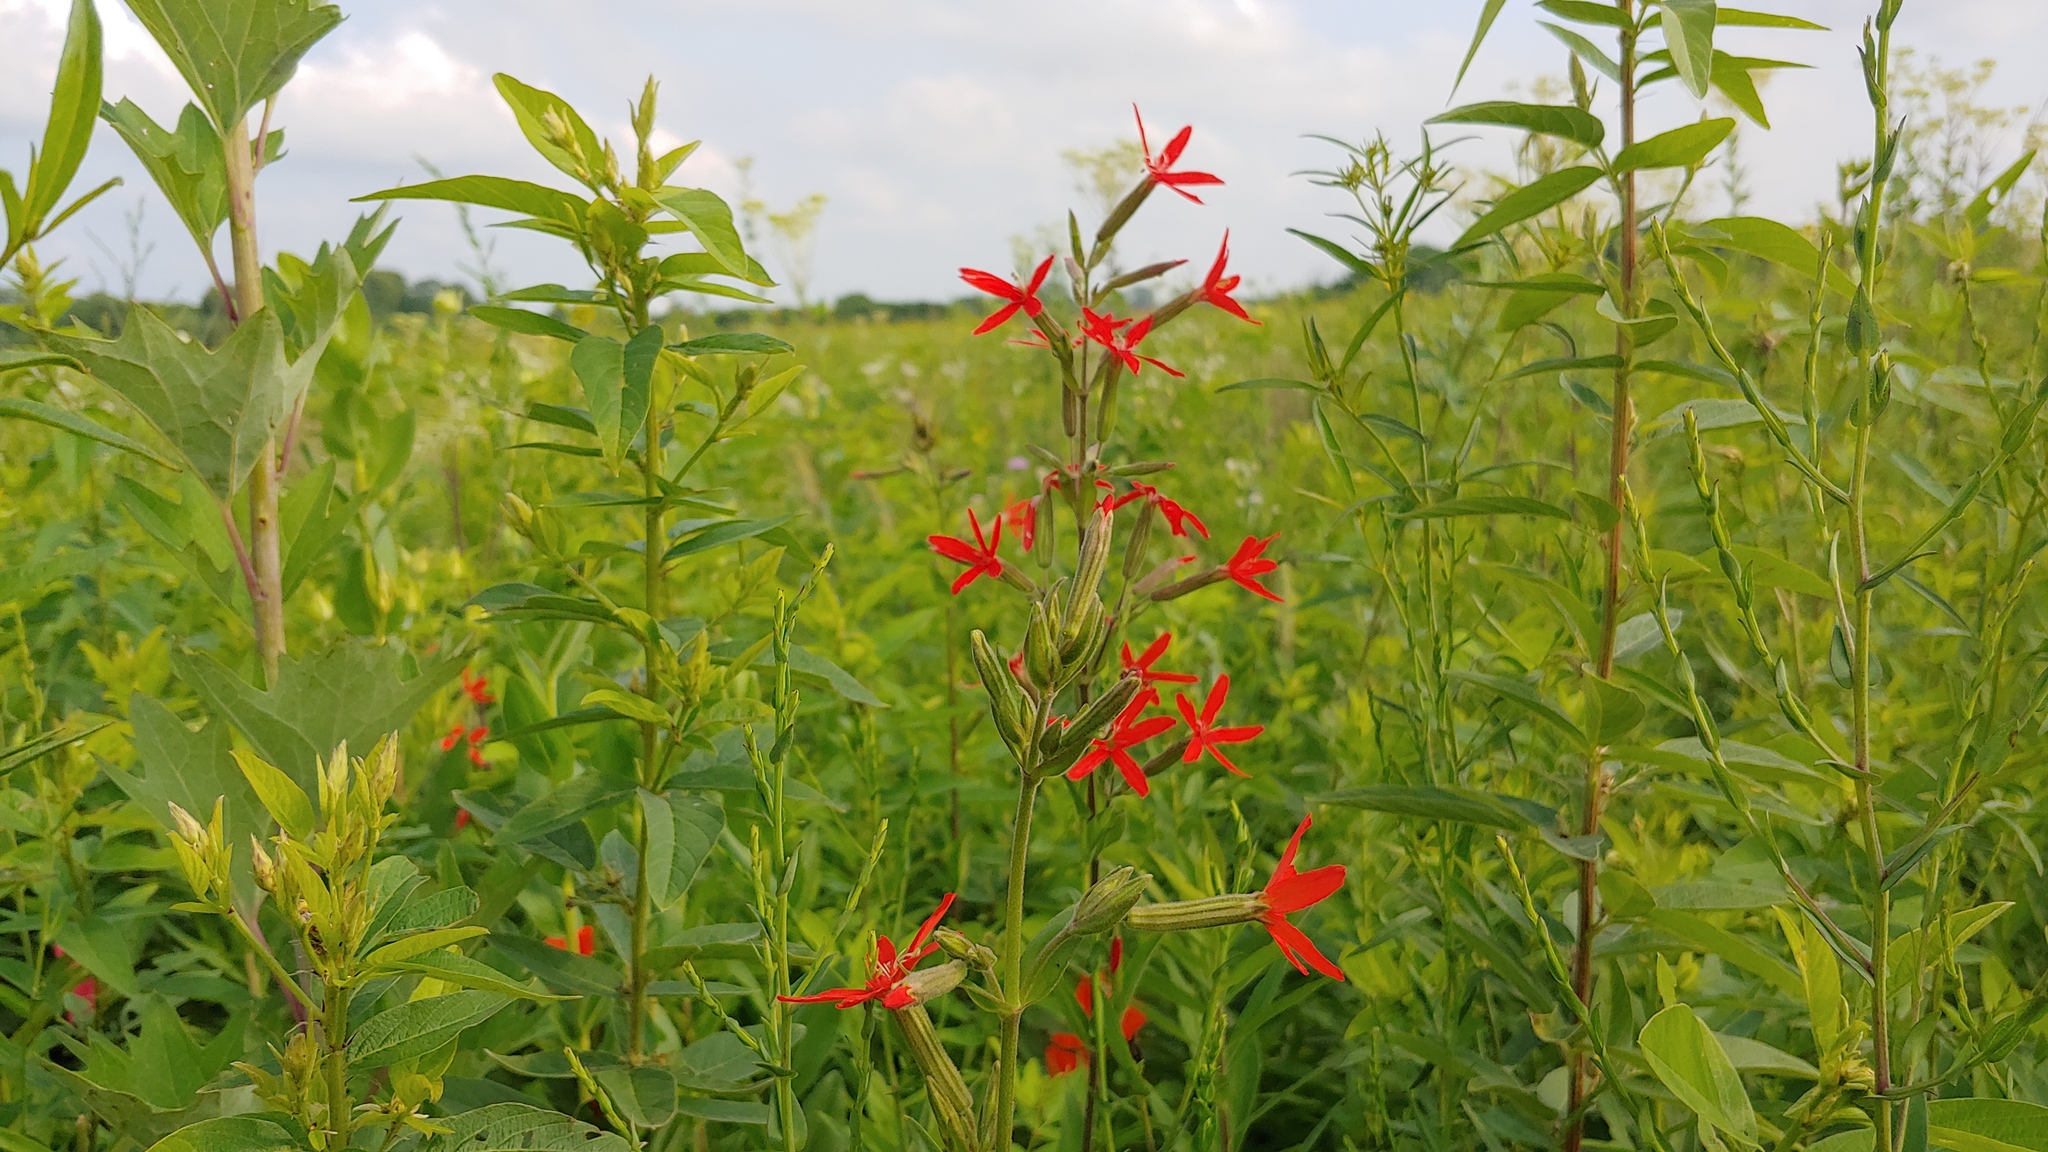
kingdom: Plantae
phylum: Tracheophyta
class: Magnoliopsida
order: Caryophyllales
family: Caryophyllaceae
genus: Silene
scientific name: Silene regia
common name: Royal catchfly
